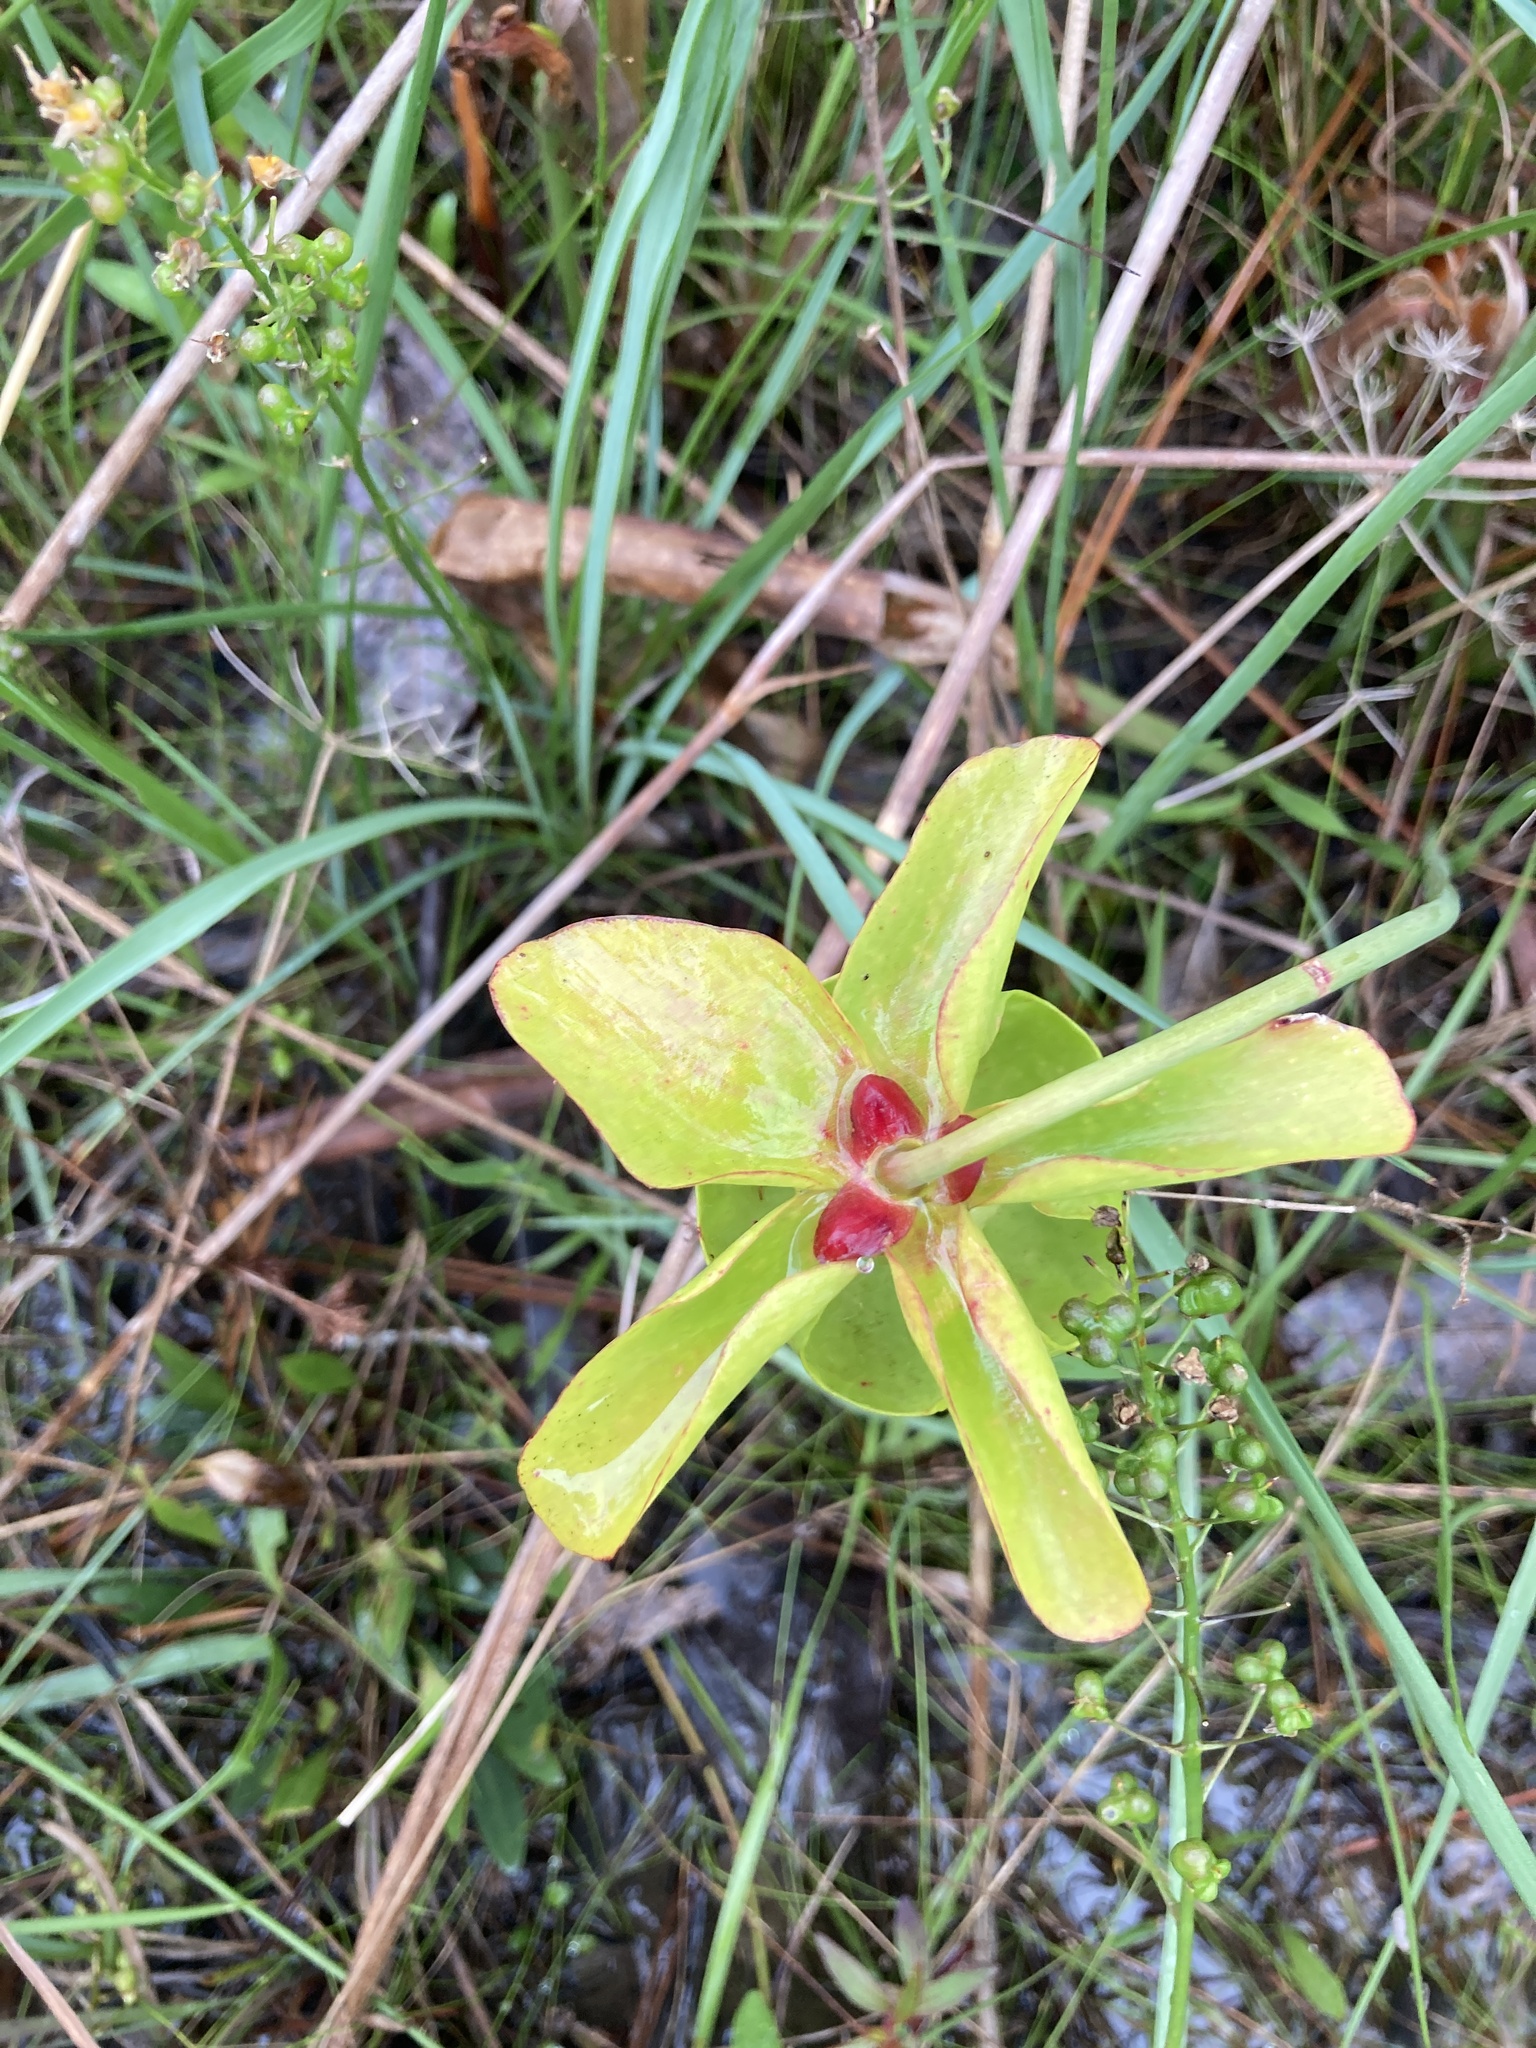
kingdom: Plantae
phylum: Tracheophyta
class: Magnoliopsida
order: Ericales
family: Sarraceniaceae
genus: Sarracenia
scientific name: Sarracenia alata
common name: Yellow trumpets
